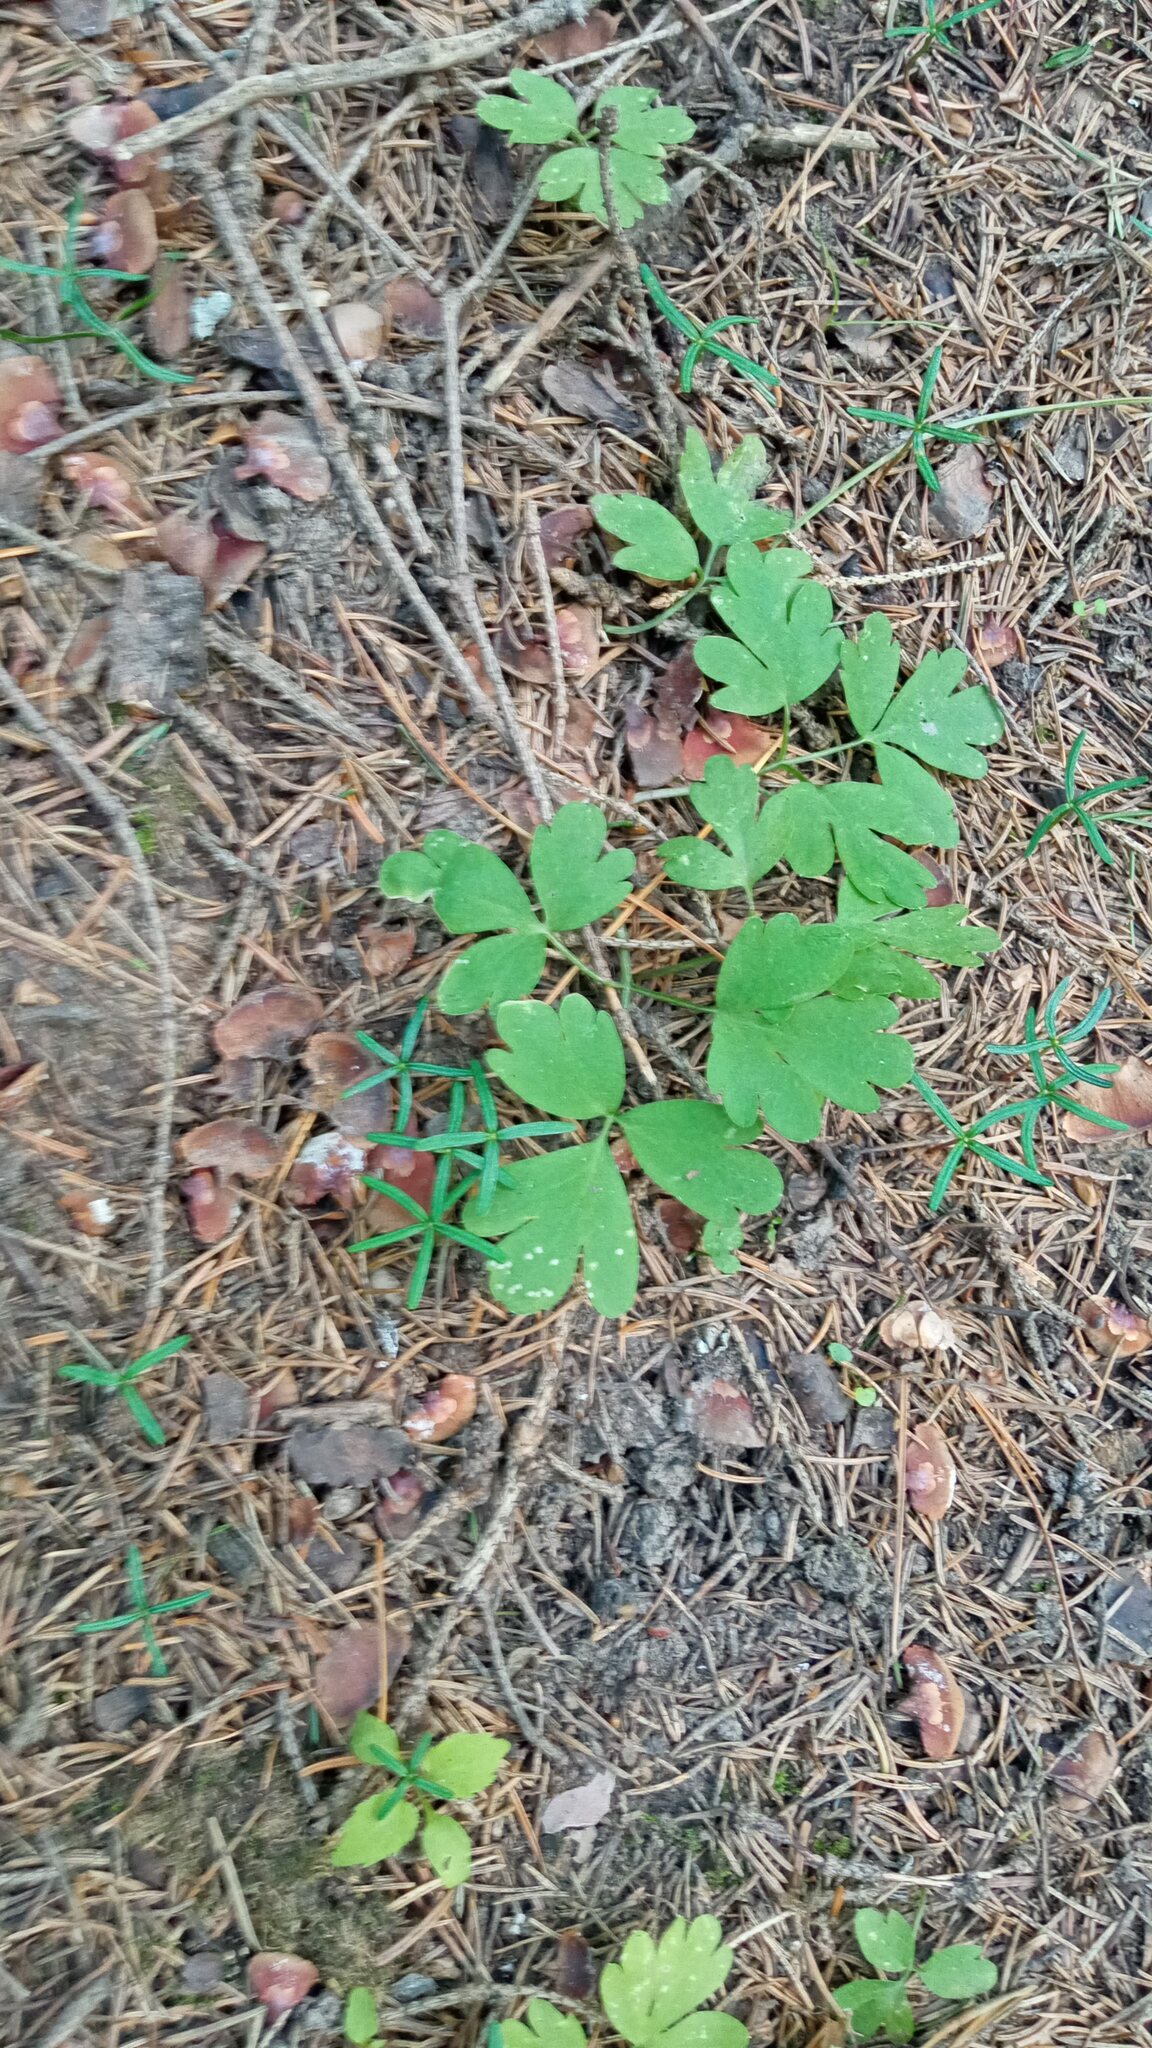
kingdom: Plantae
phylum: Tracheophyta
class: Magnoliopsida
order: Dipsacales
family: Viburnaceae
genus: Adoxa
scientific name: Adoxa moschatellina
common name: Moschatel
